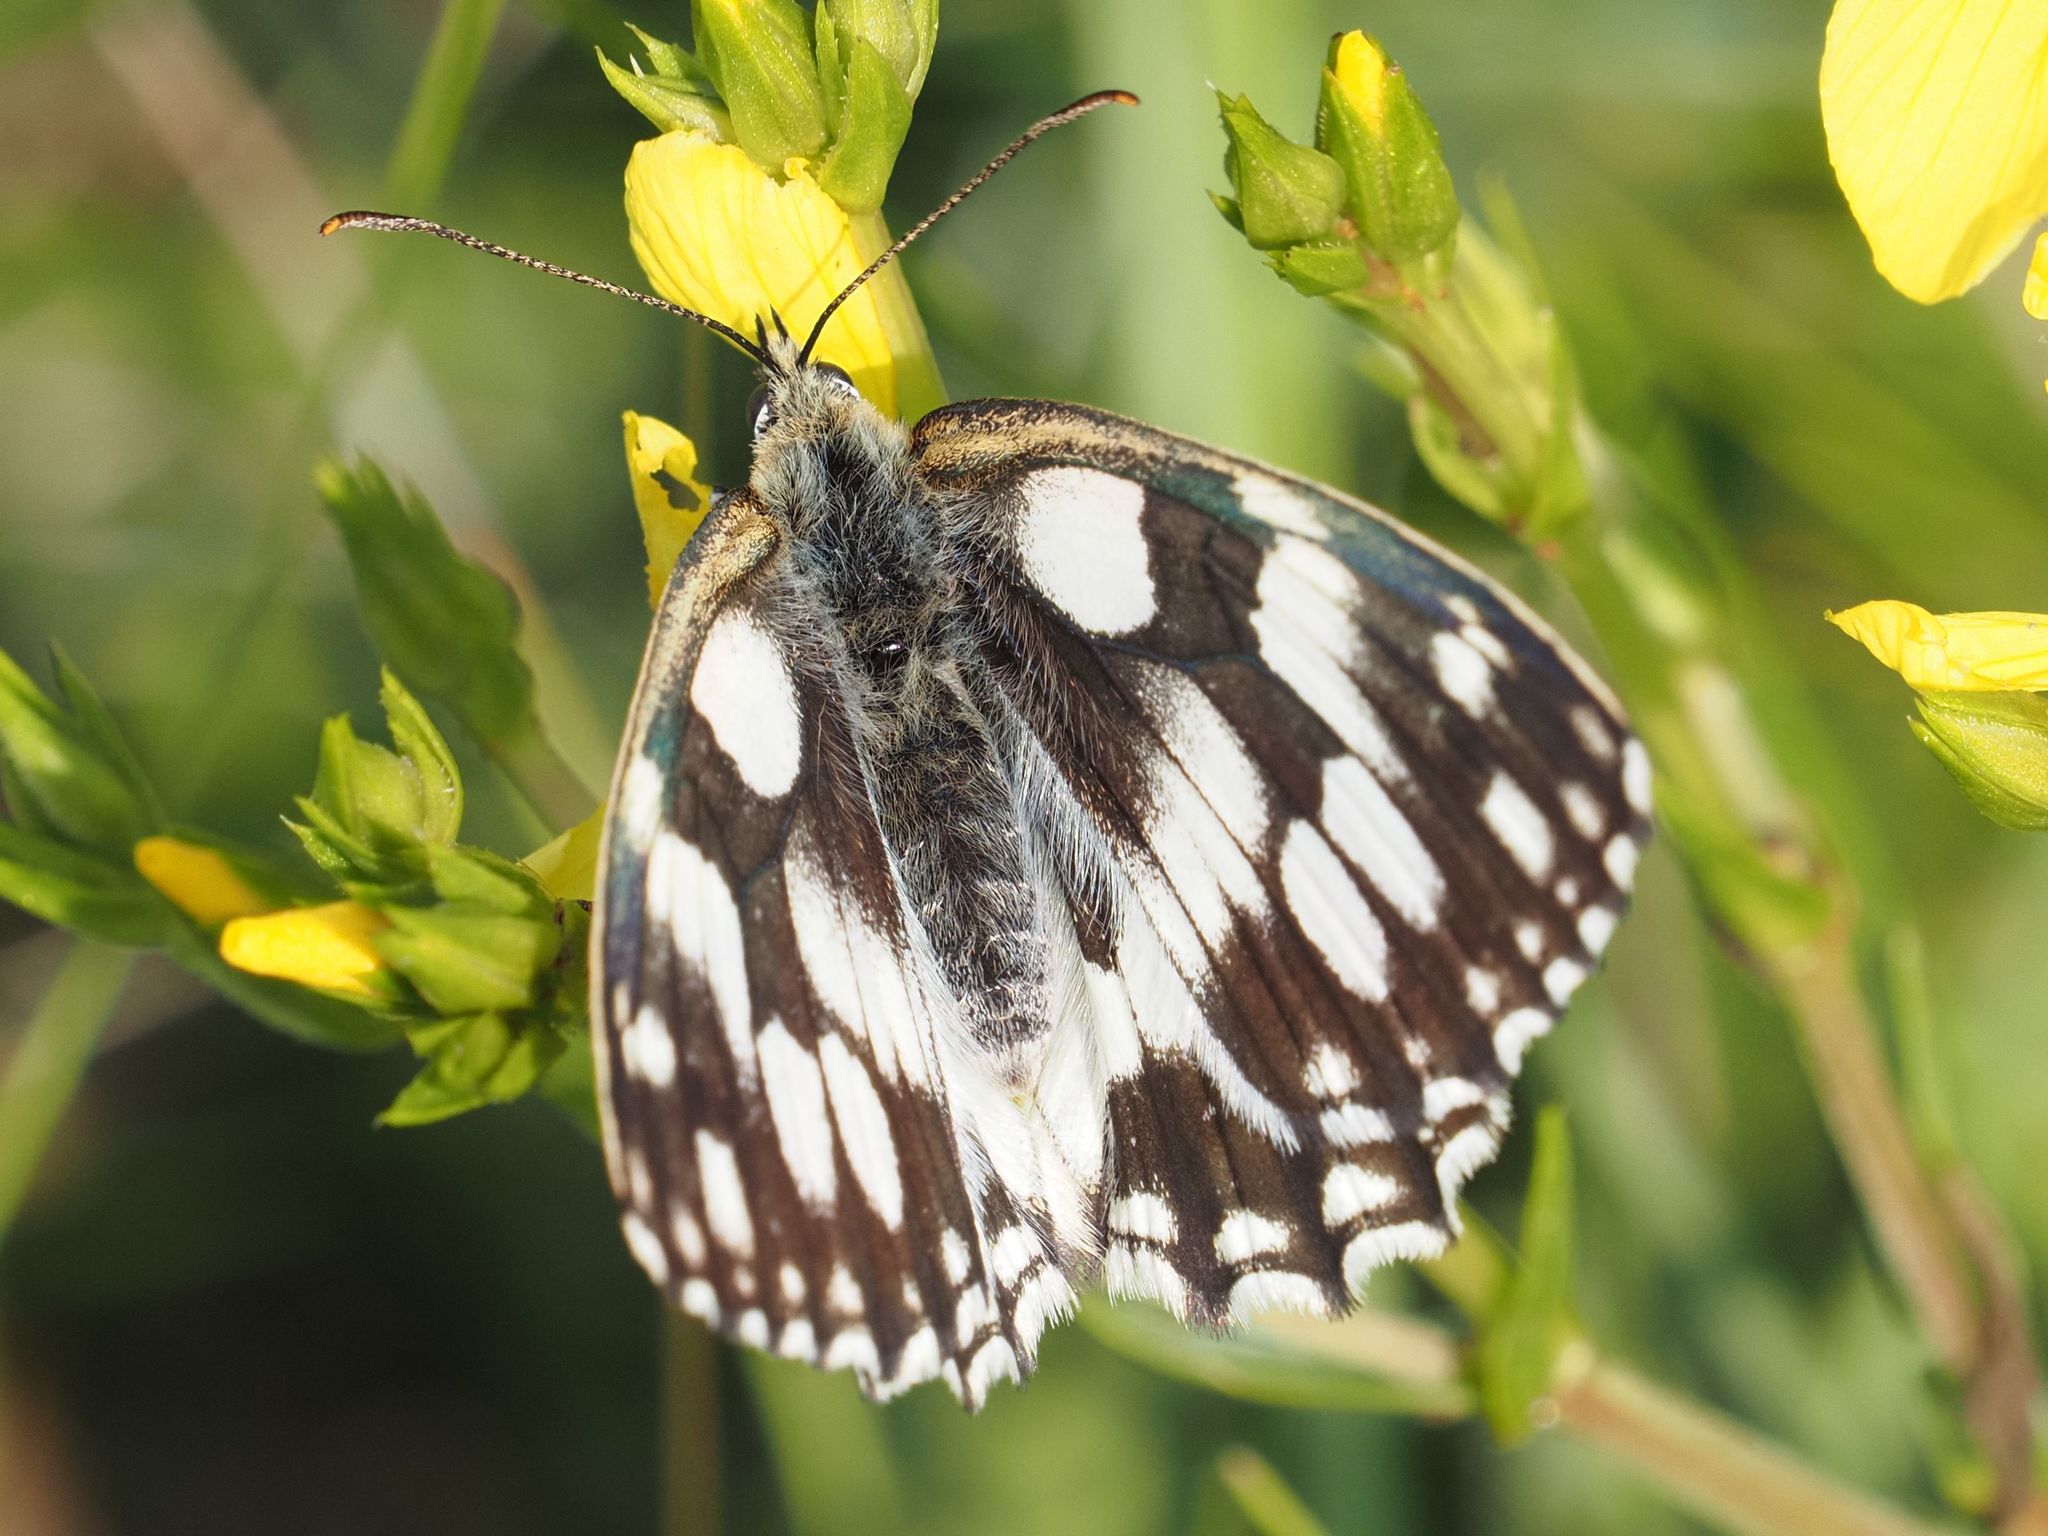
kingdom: Animalia
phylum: Arthropoda
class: Insecta
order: Lepidoptera
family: Nymphalidae
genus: Melanargia
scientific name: Melanargia galathea
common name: Marbled white
